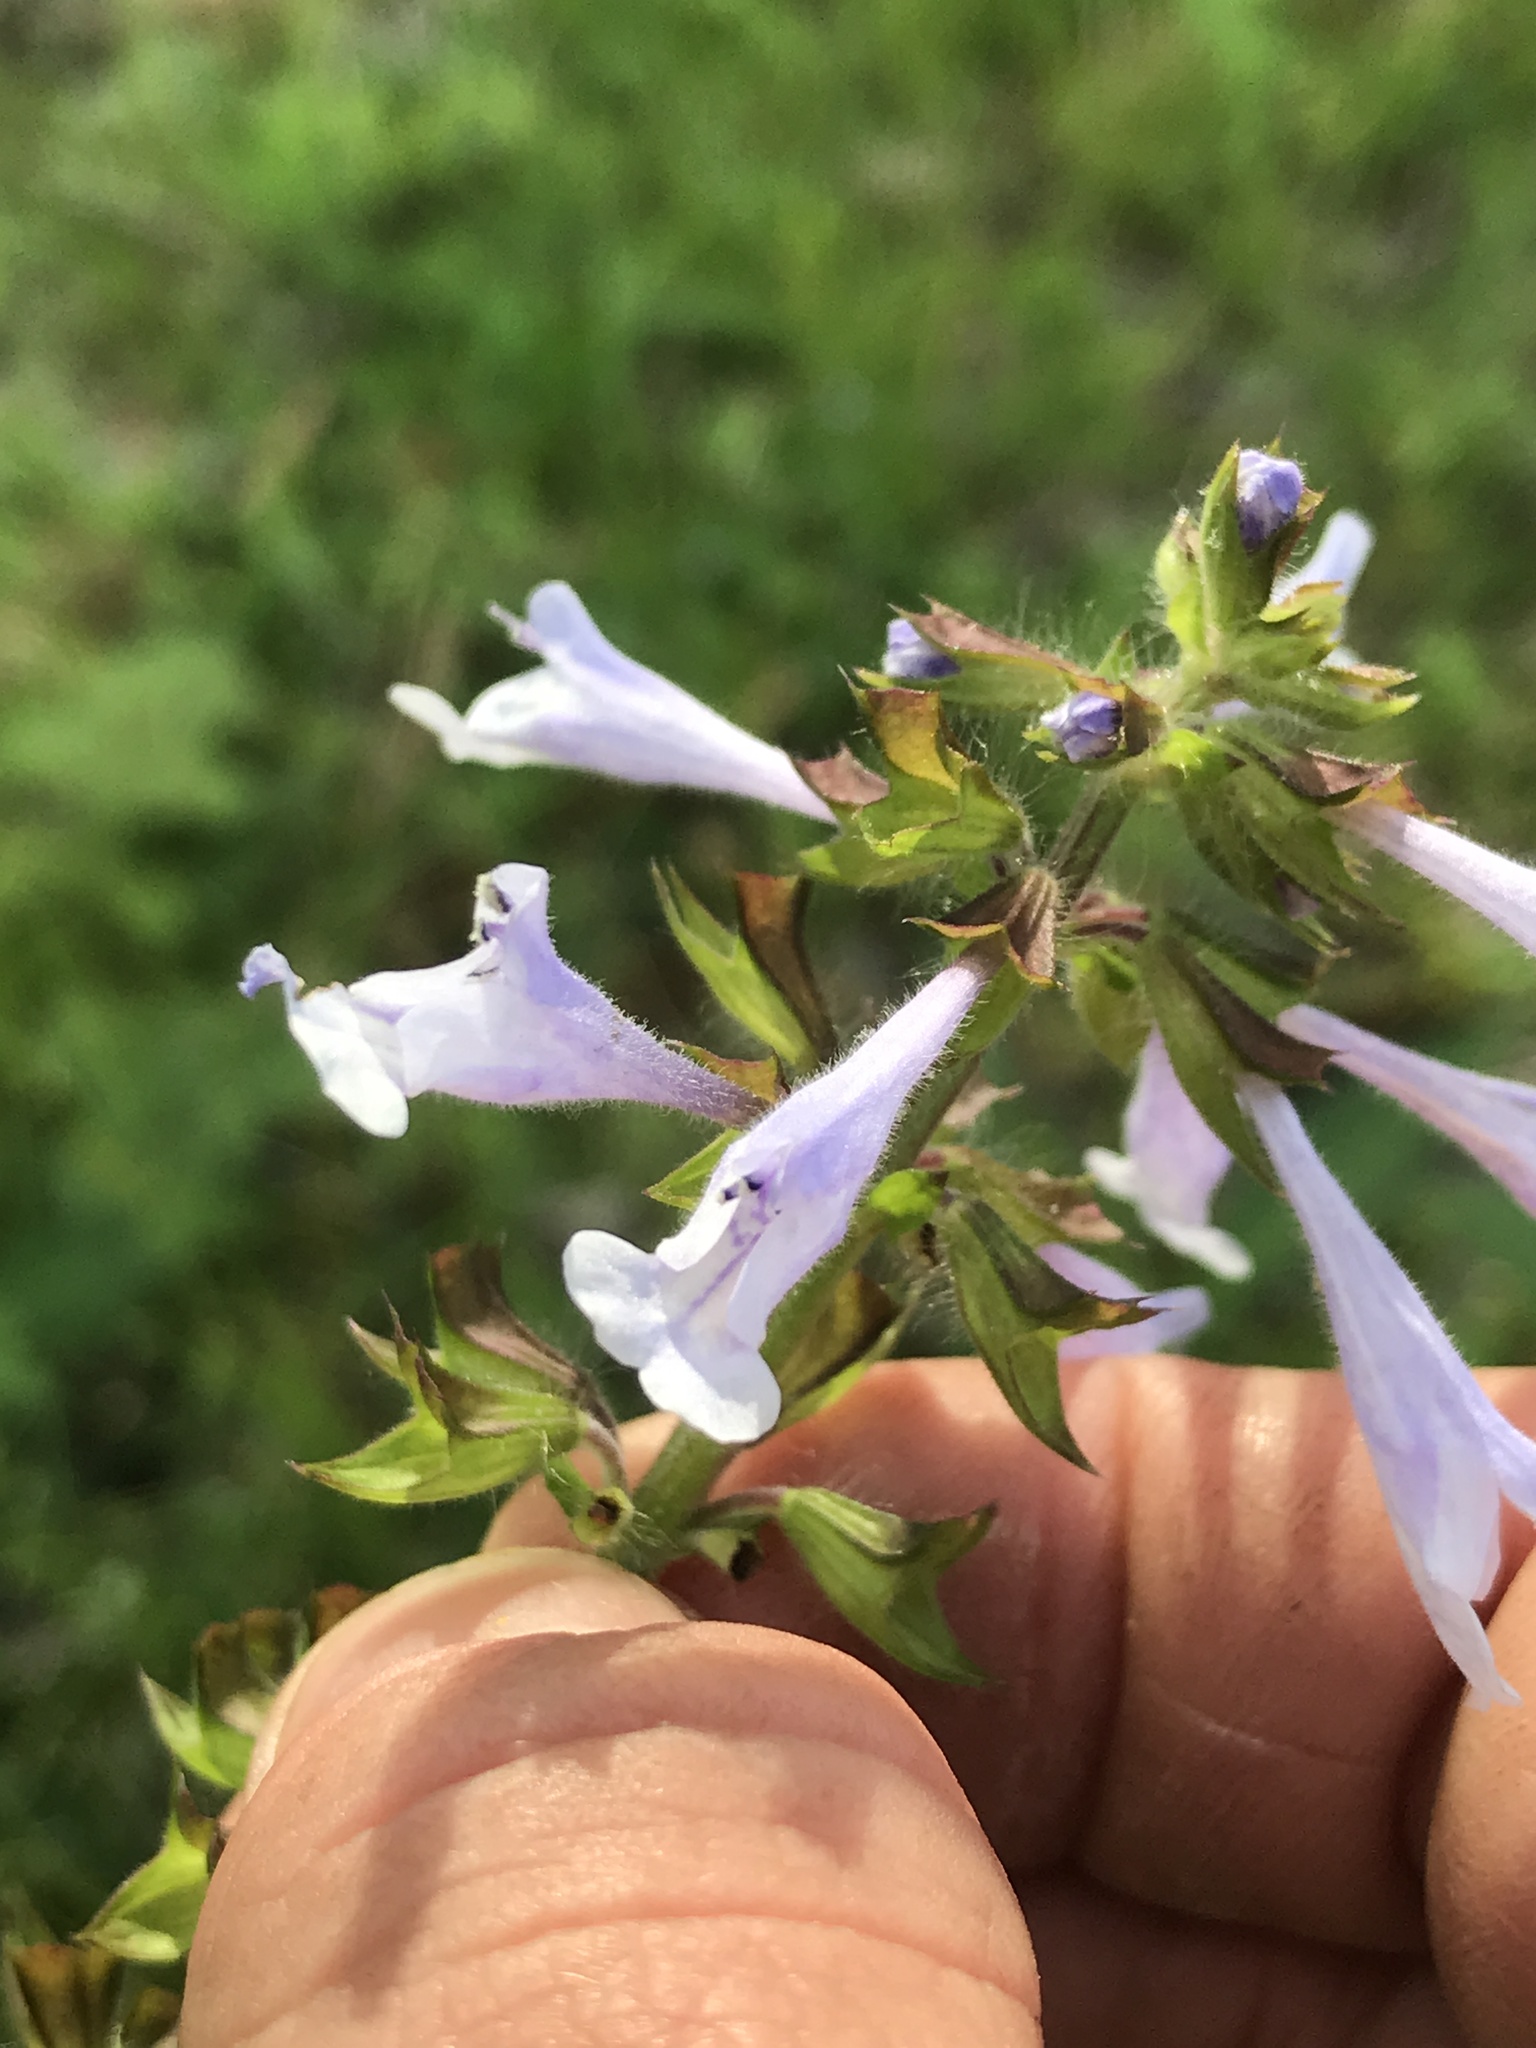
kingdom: Plantae
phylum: Tracheophyta
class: Magnoliopsida
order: Lamiales
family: Lamiaceae
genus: Salvia
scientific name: Salvia lyrata
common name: Cancerweed
